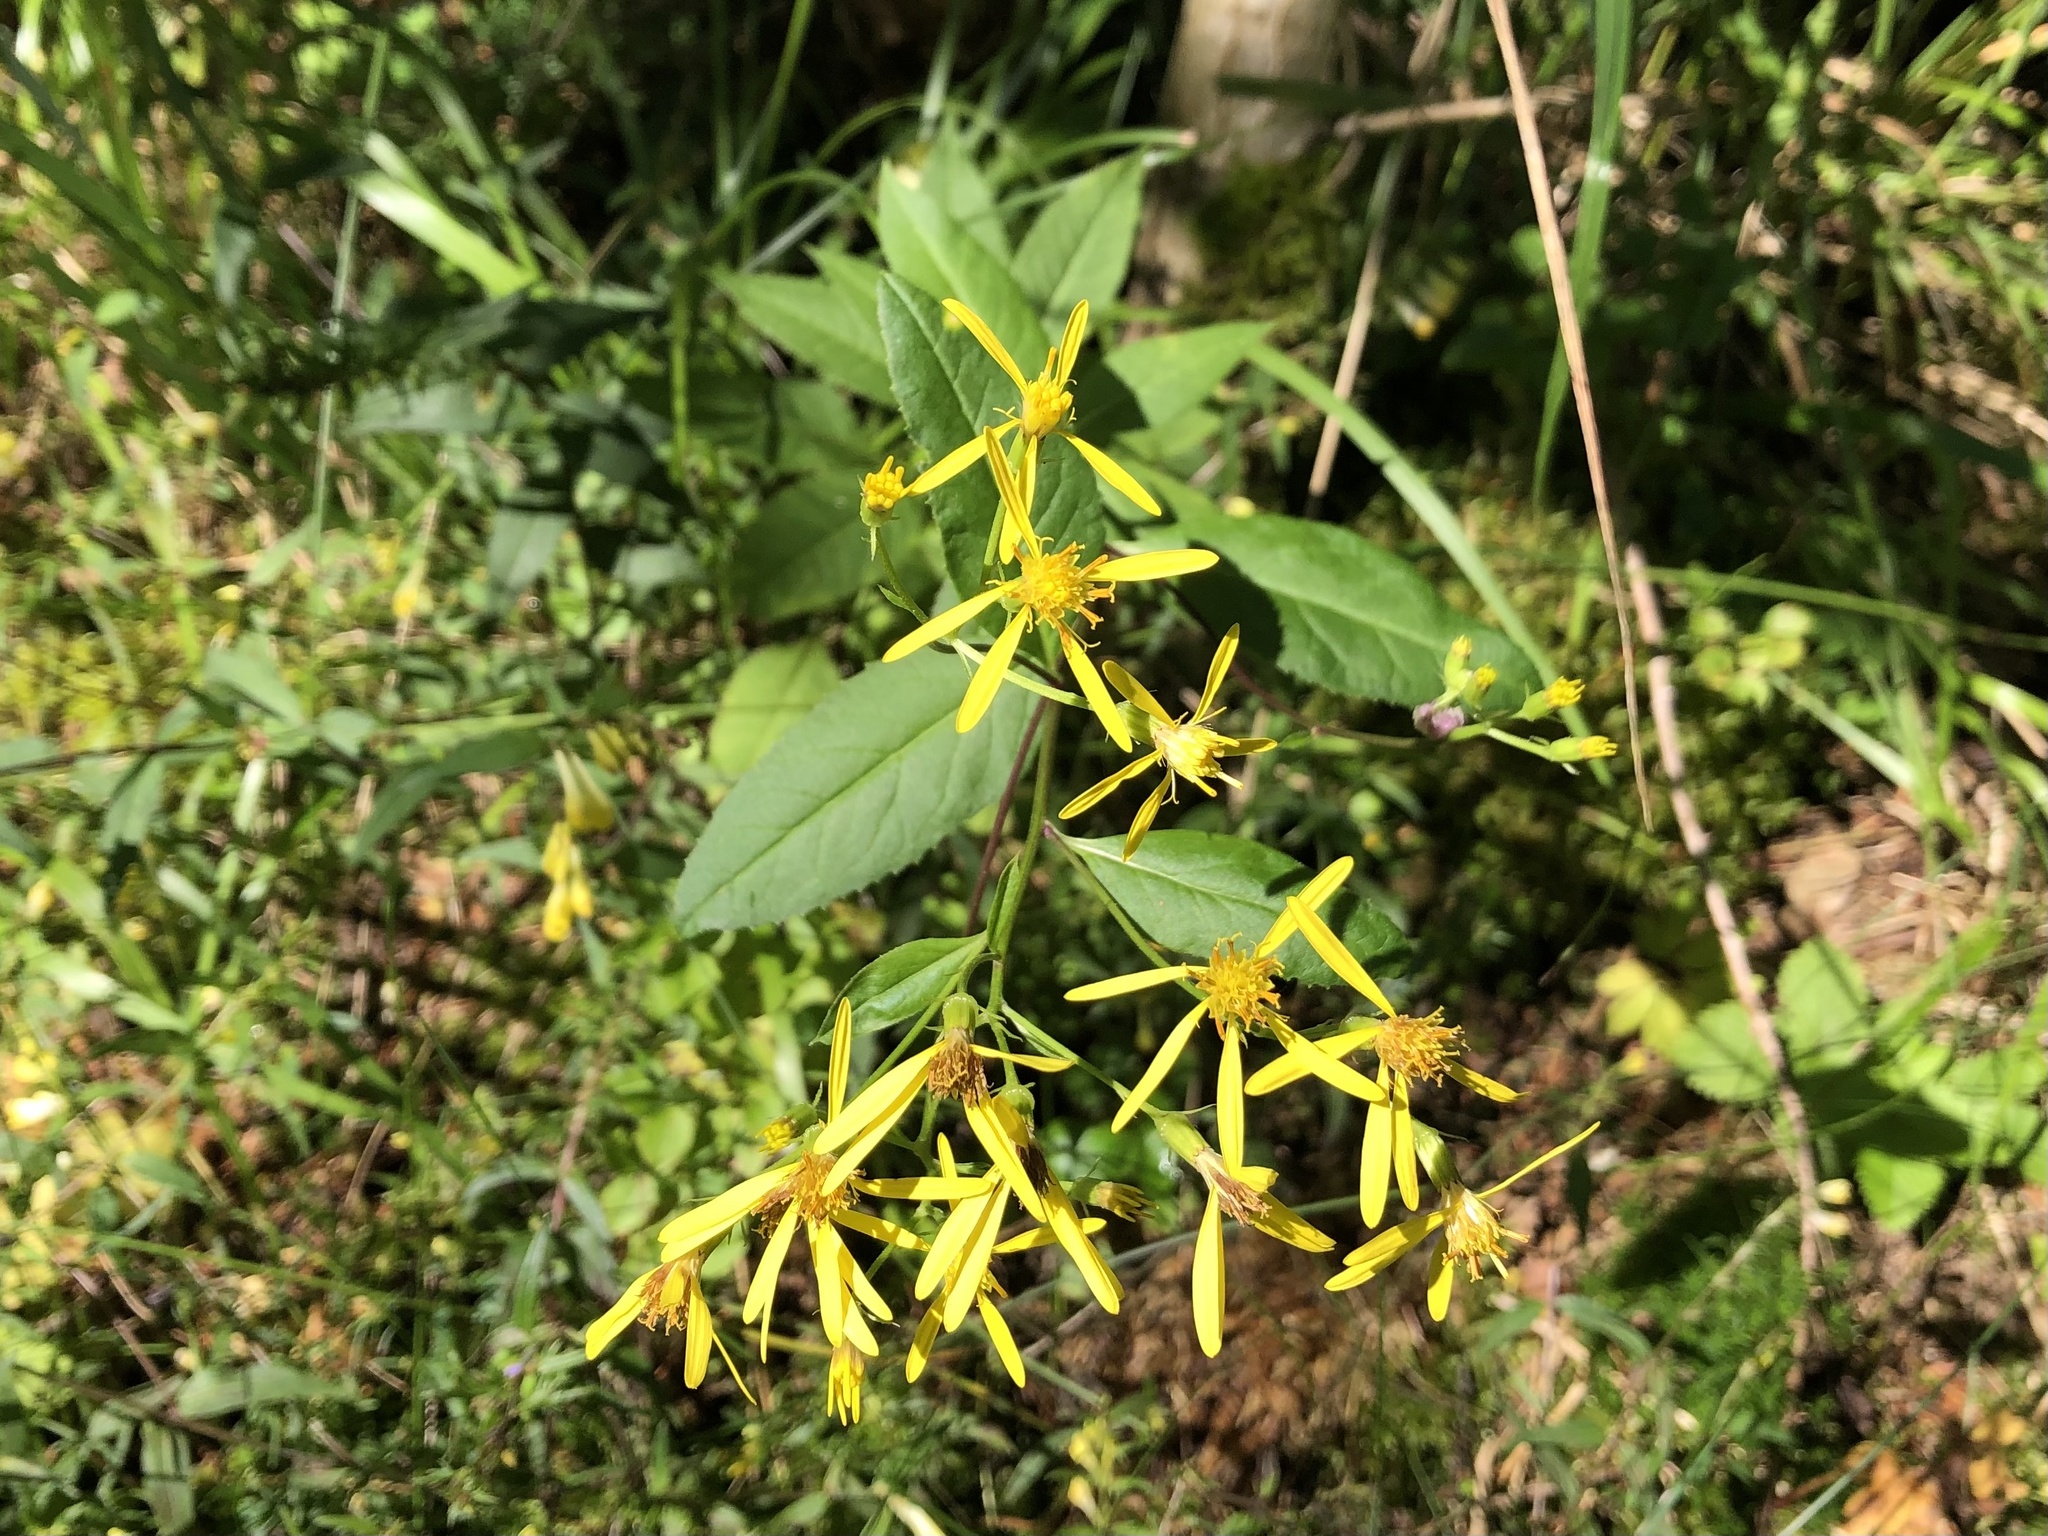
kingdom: Plantae
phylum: Tracheophyta
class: Magnoliopsida
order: Asterales
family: Asteraceae
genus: Senecio
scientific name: Senecio ovatus
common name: Wood ragwort
